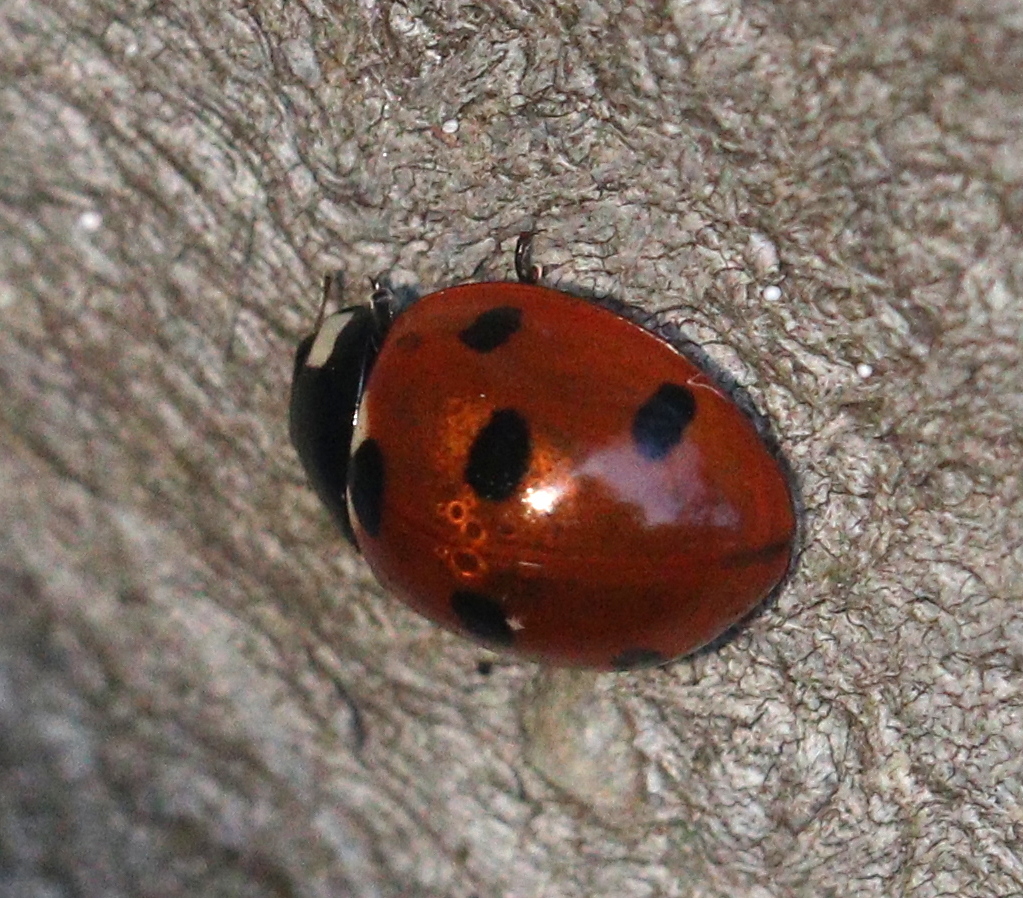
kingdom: Animalia
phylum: Arthropoda
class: Insecta
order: Coleoptera
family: Coccinellidae
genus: Coccinella
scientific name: Coccinella septempunctata
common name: Sevenspotted lady beetle
